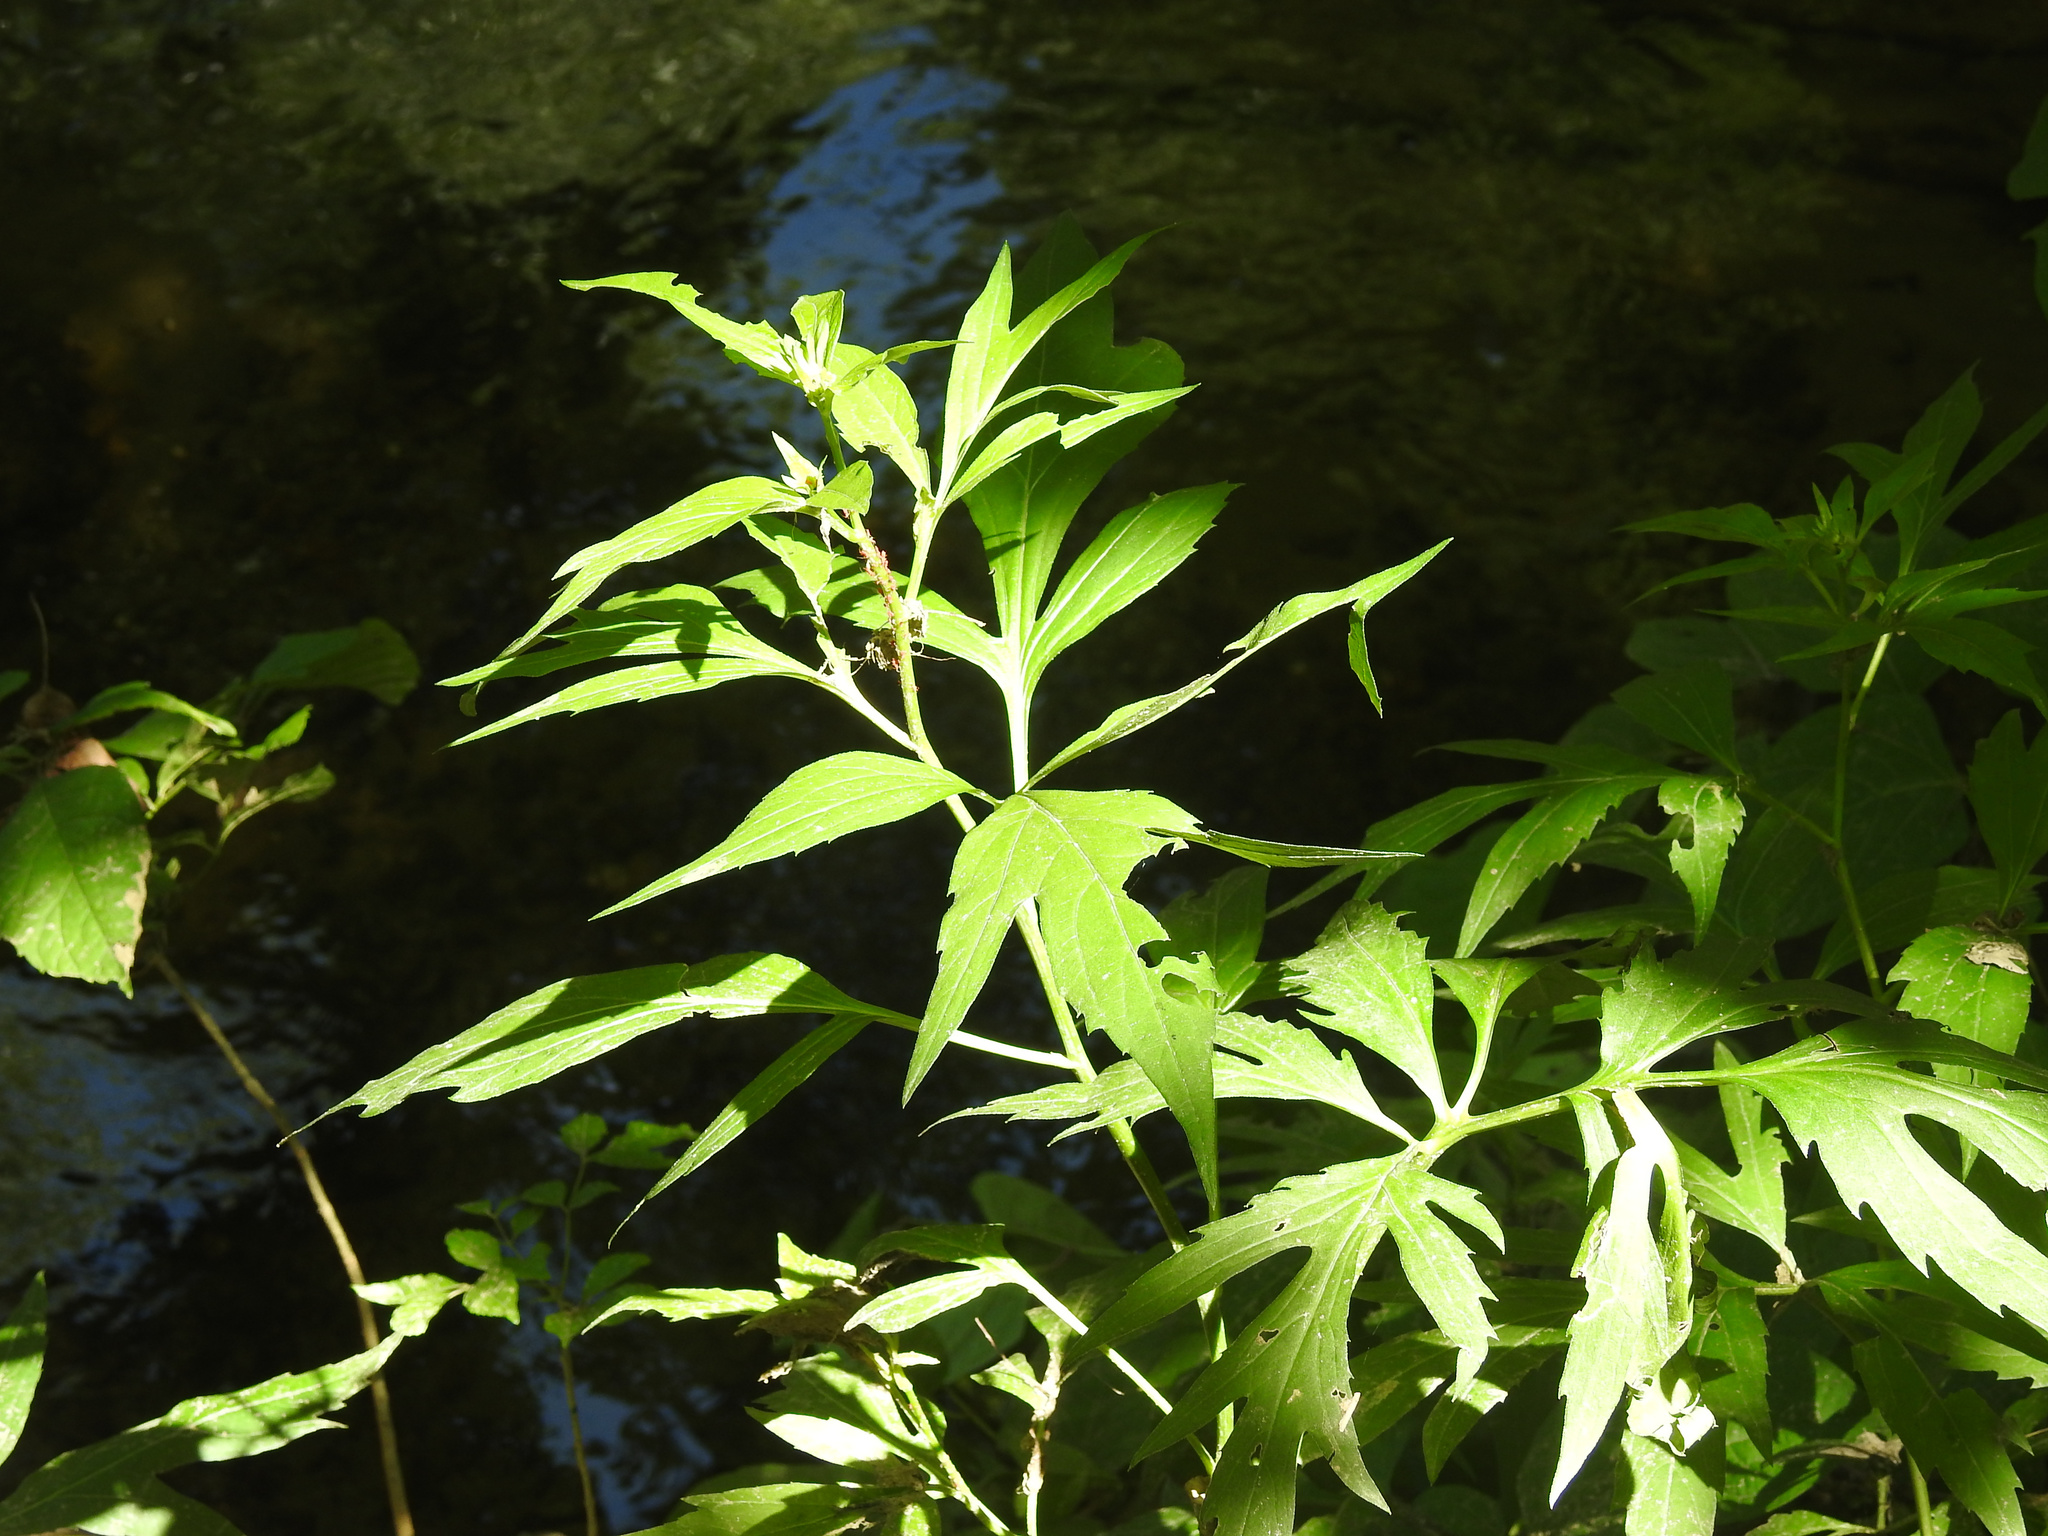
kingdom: Plantae
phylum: Tracheophyta
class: Magnoliopsida
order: Asterales
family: Asteraceae
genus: Rudbeckia
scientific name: Rudbeckia laciniata
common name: Coneflower
